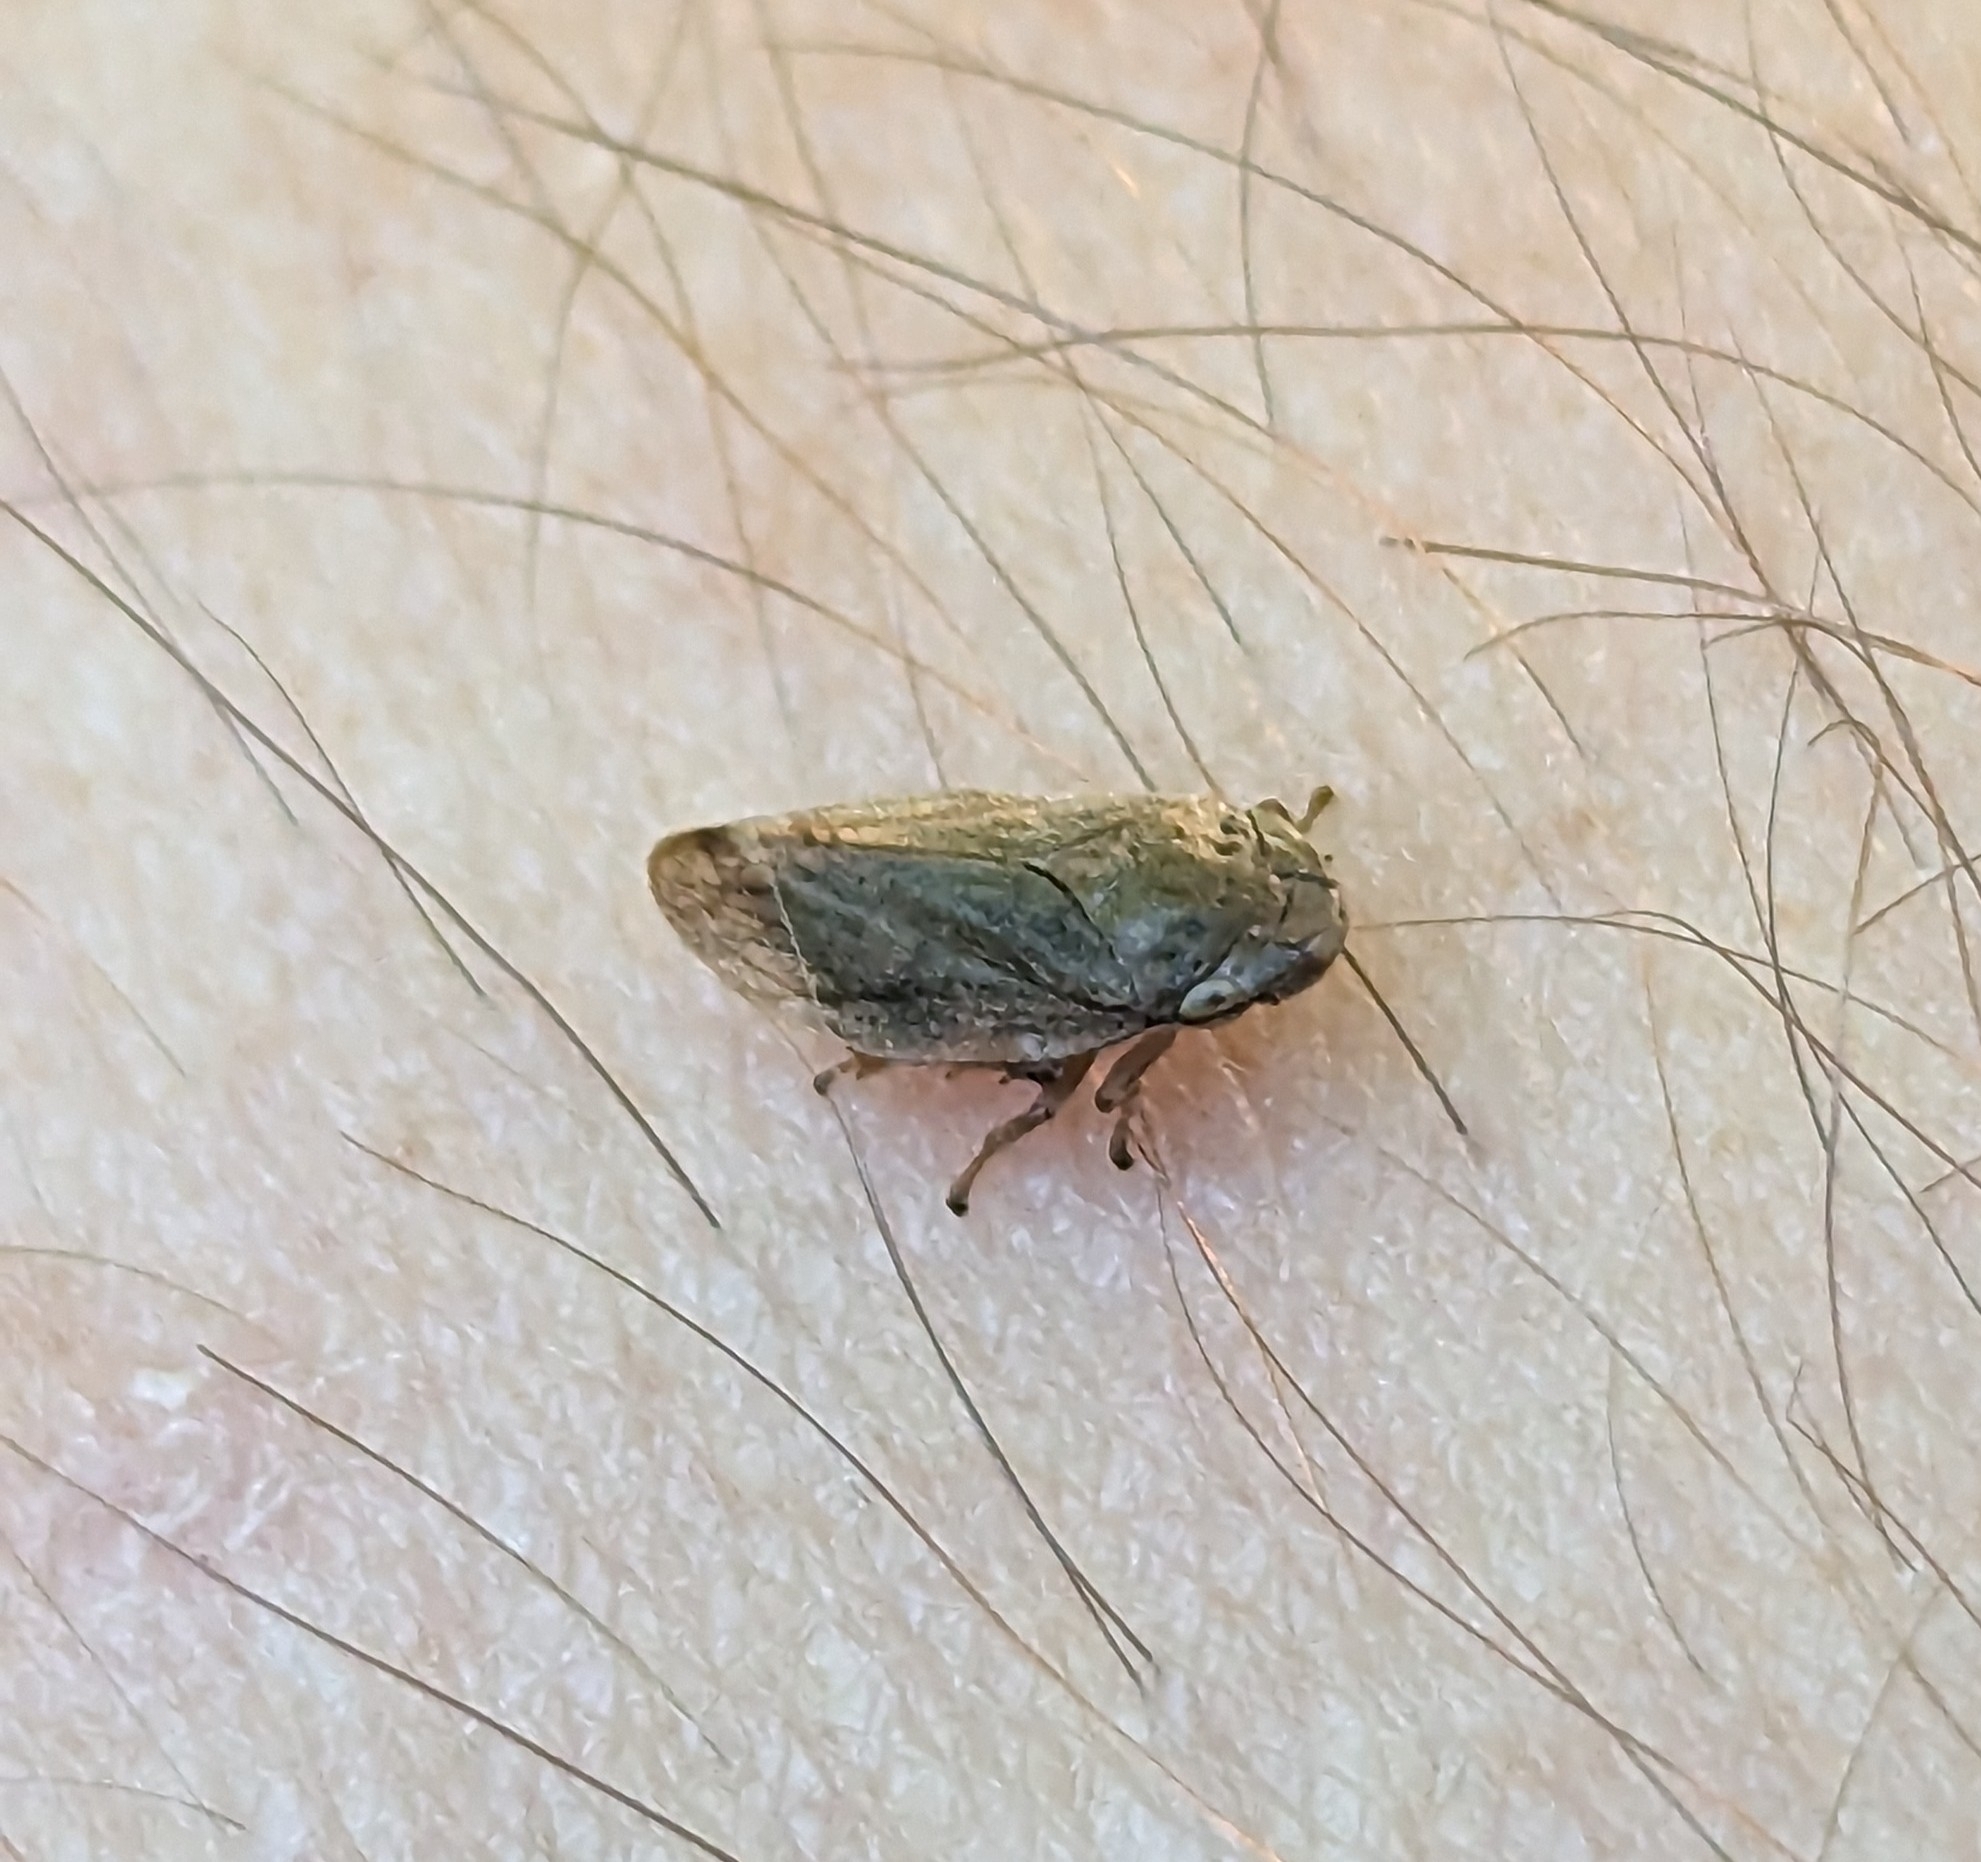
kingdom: Animalia
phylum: Arthropoda
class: Insecta
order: Hemiptera
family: Aphrophoridae
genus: Philaenus
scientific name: Philaenus spumarius
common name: Meadow spittlebug
